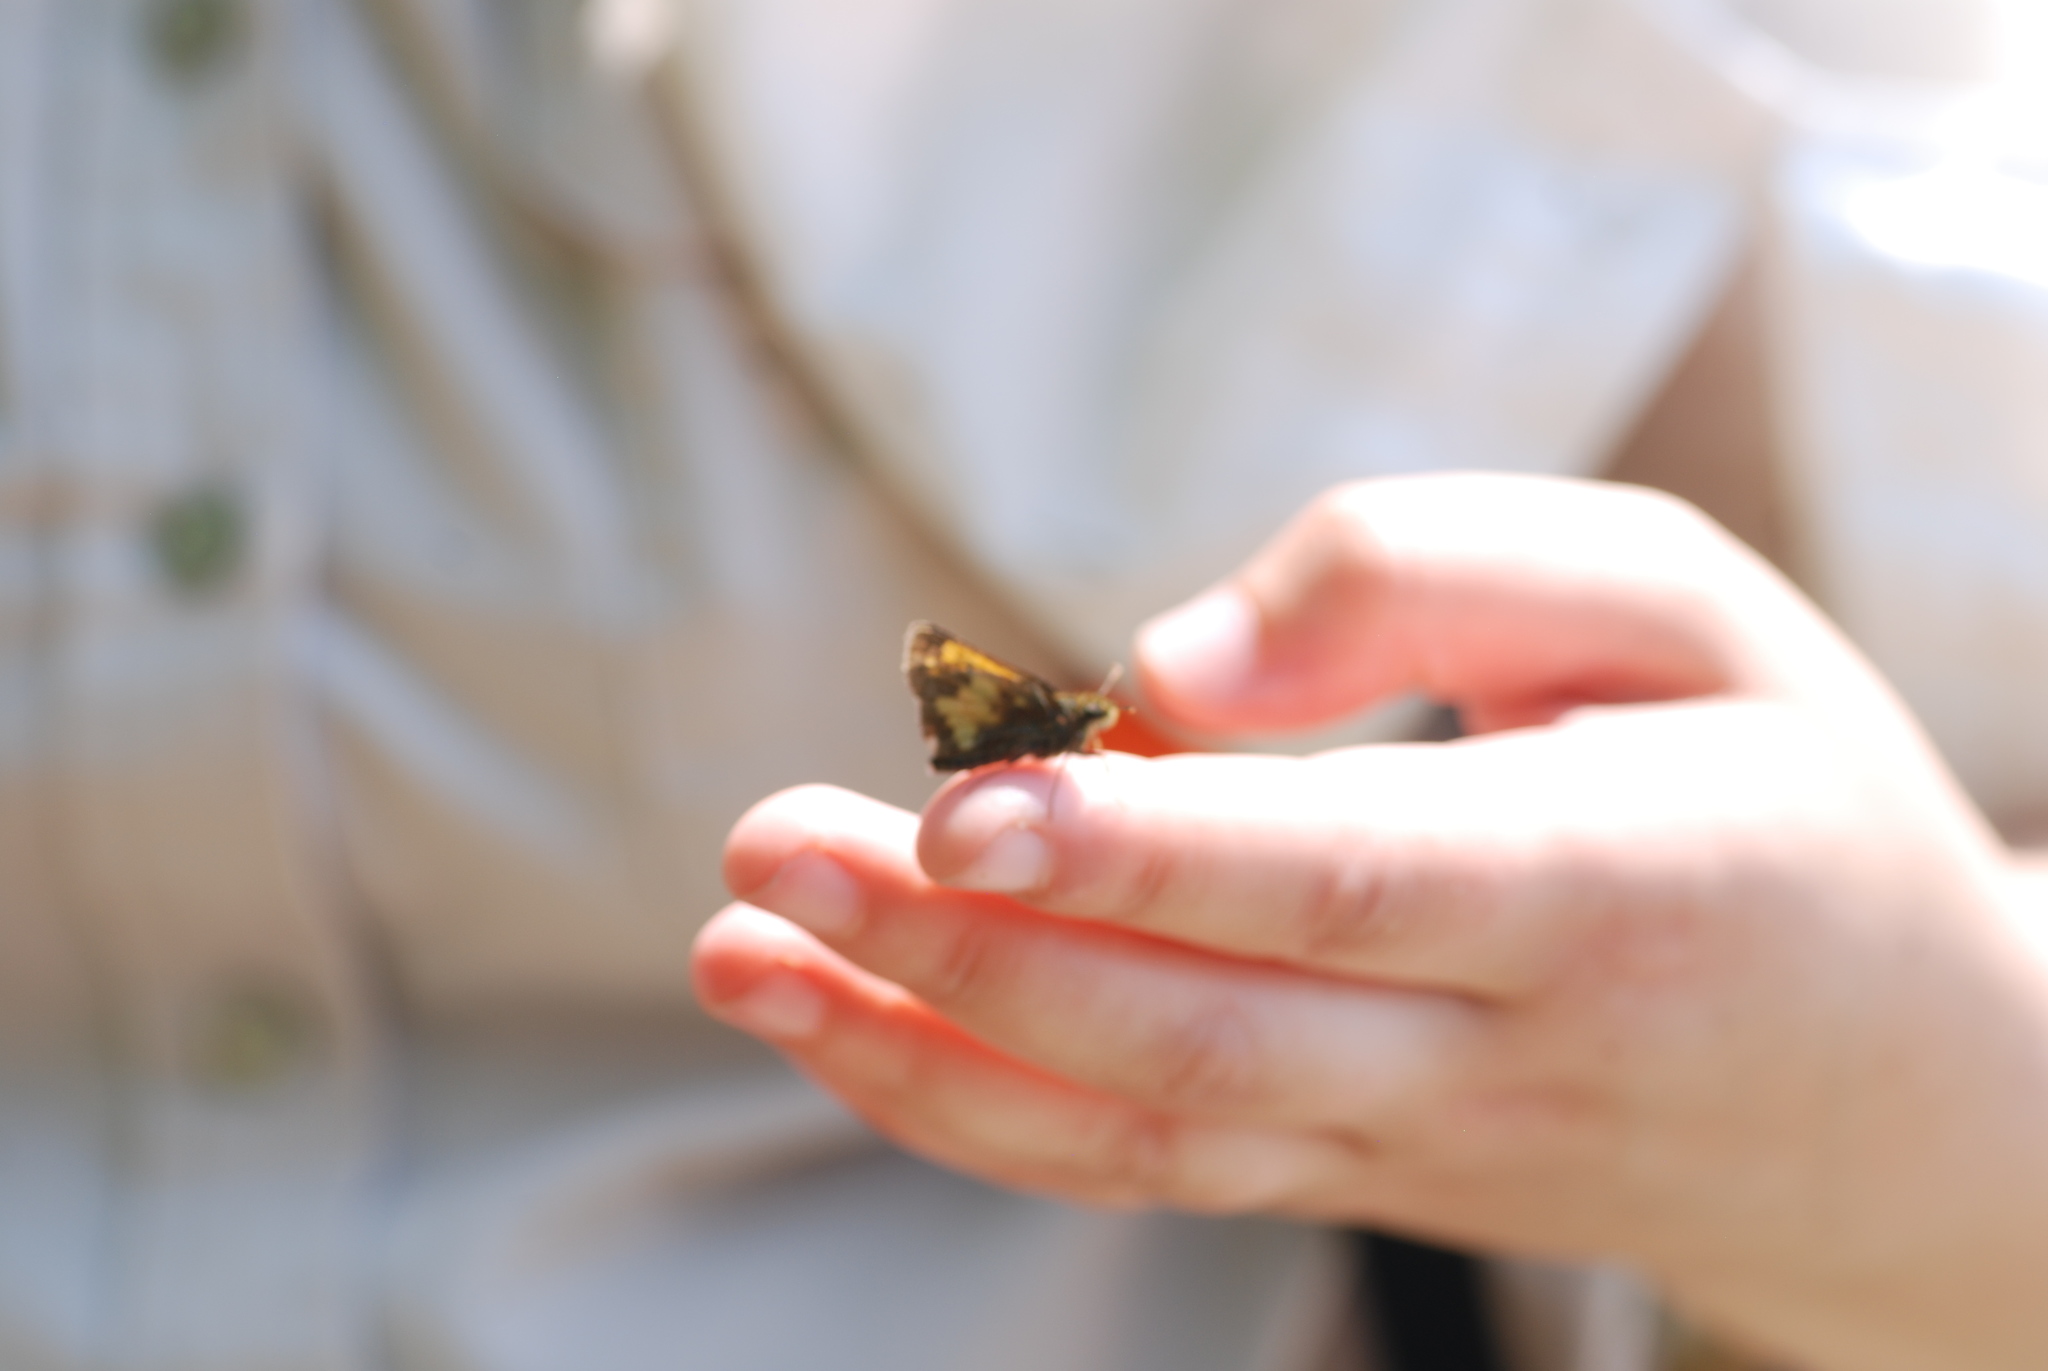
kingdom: Animalia
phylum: Arthropoda
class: Insecta
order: Lepidoptera
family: Hesperiidae
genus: Lon
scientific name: Lon hobomok
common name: Hobomok skipper
